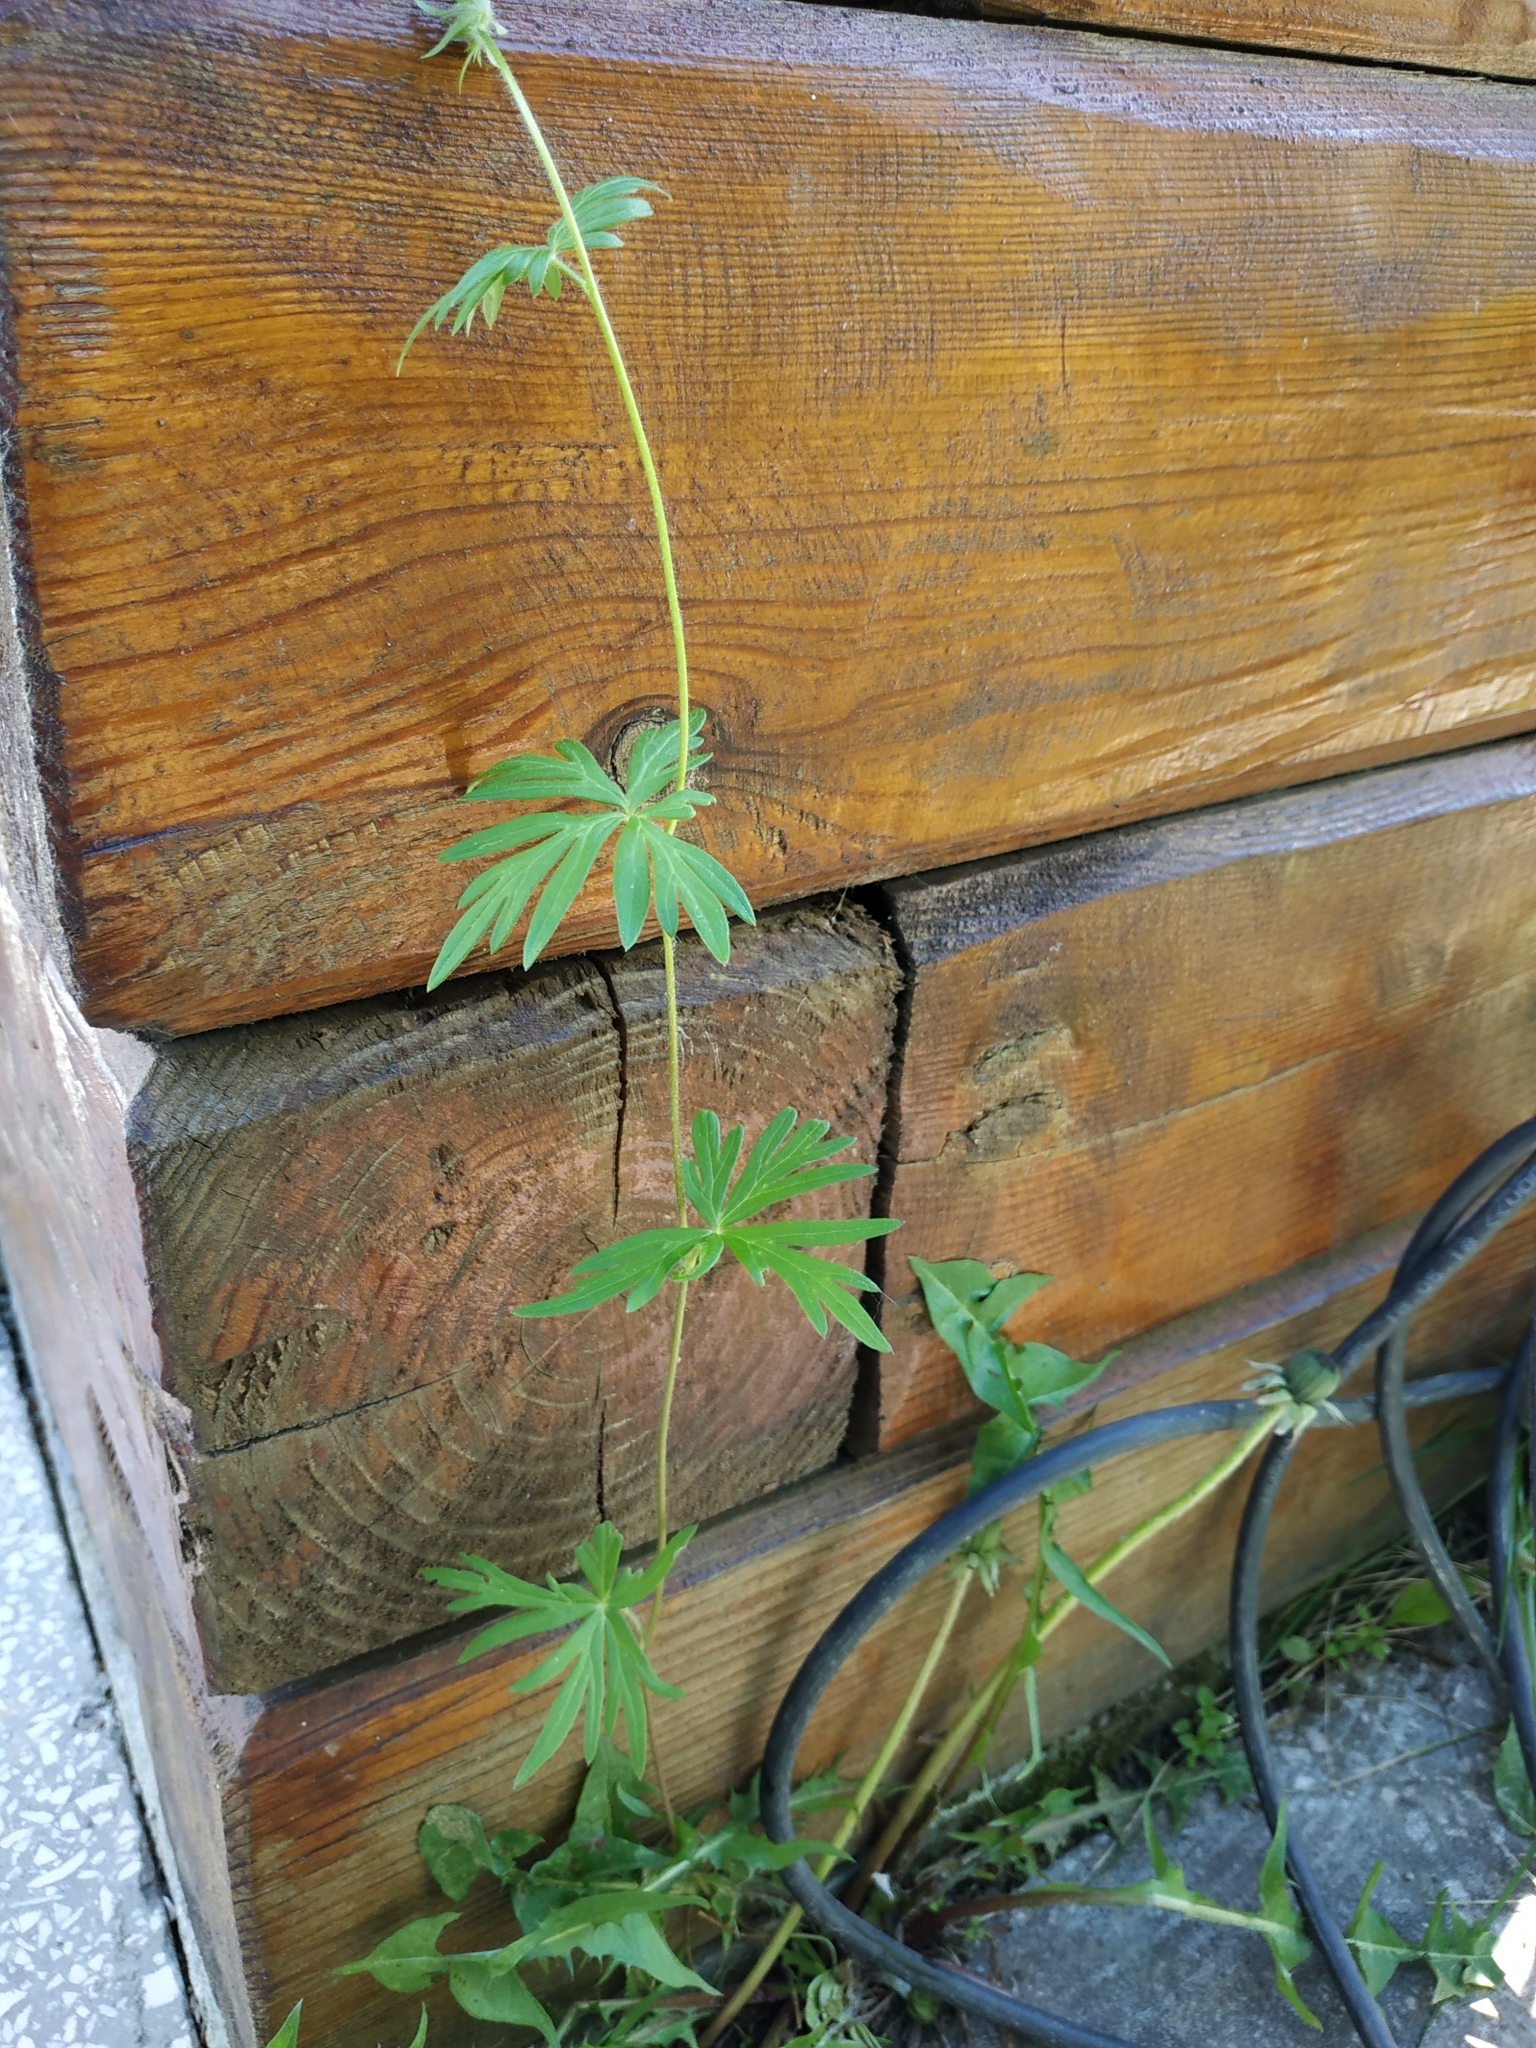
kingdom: Plantae
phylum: Tracheophyta
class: Magnoliopsida
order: Ranunculales
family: Ranunculaceae
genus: Aconitum
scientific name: Aconitum volubile
